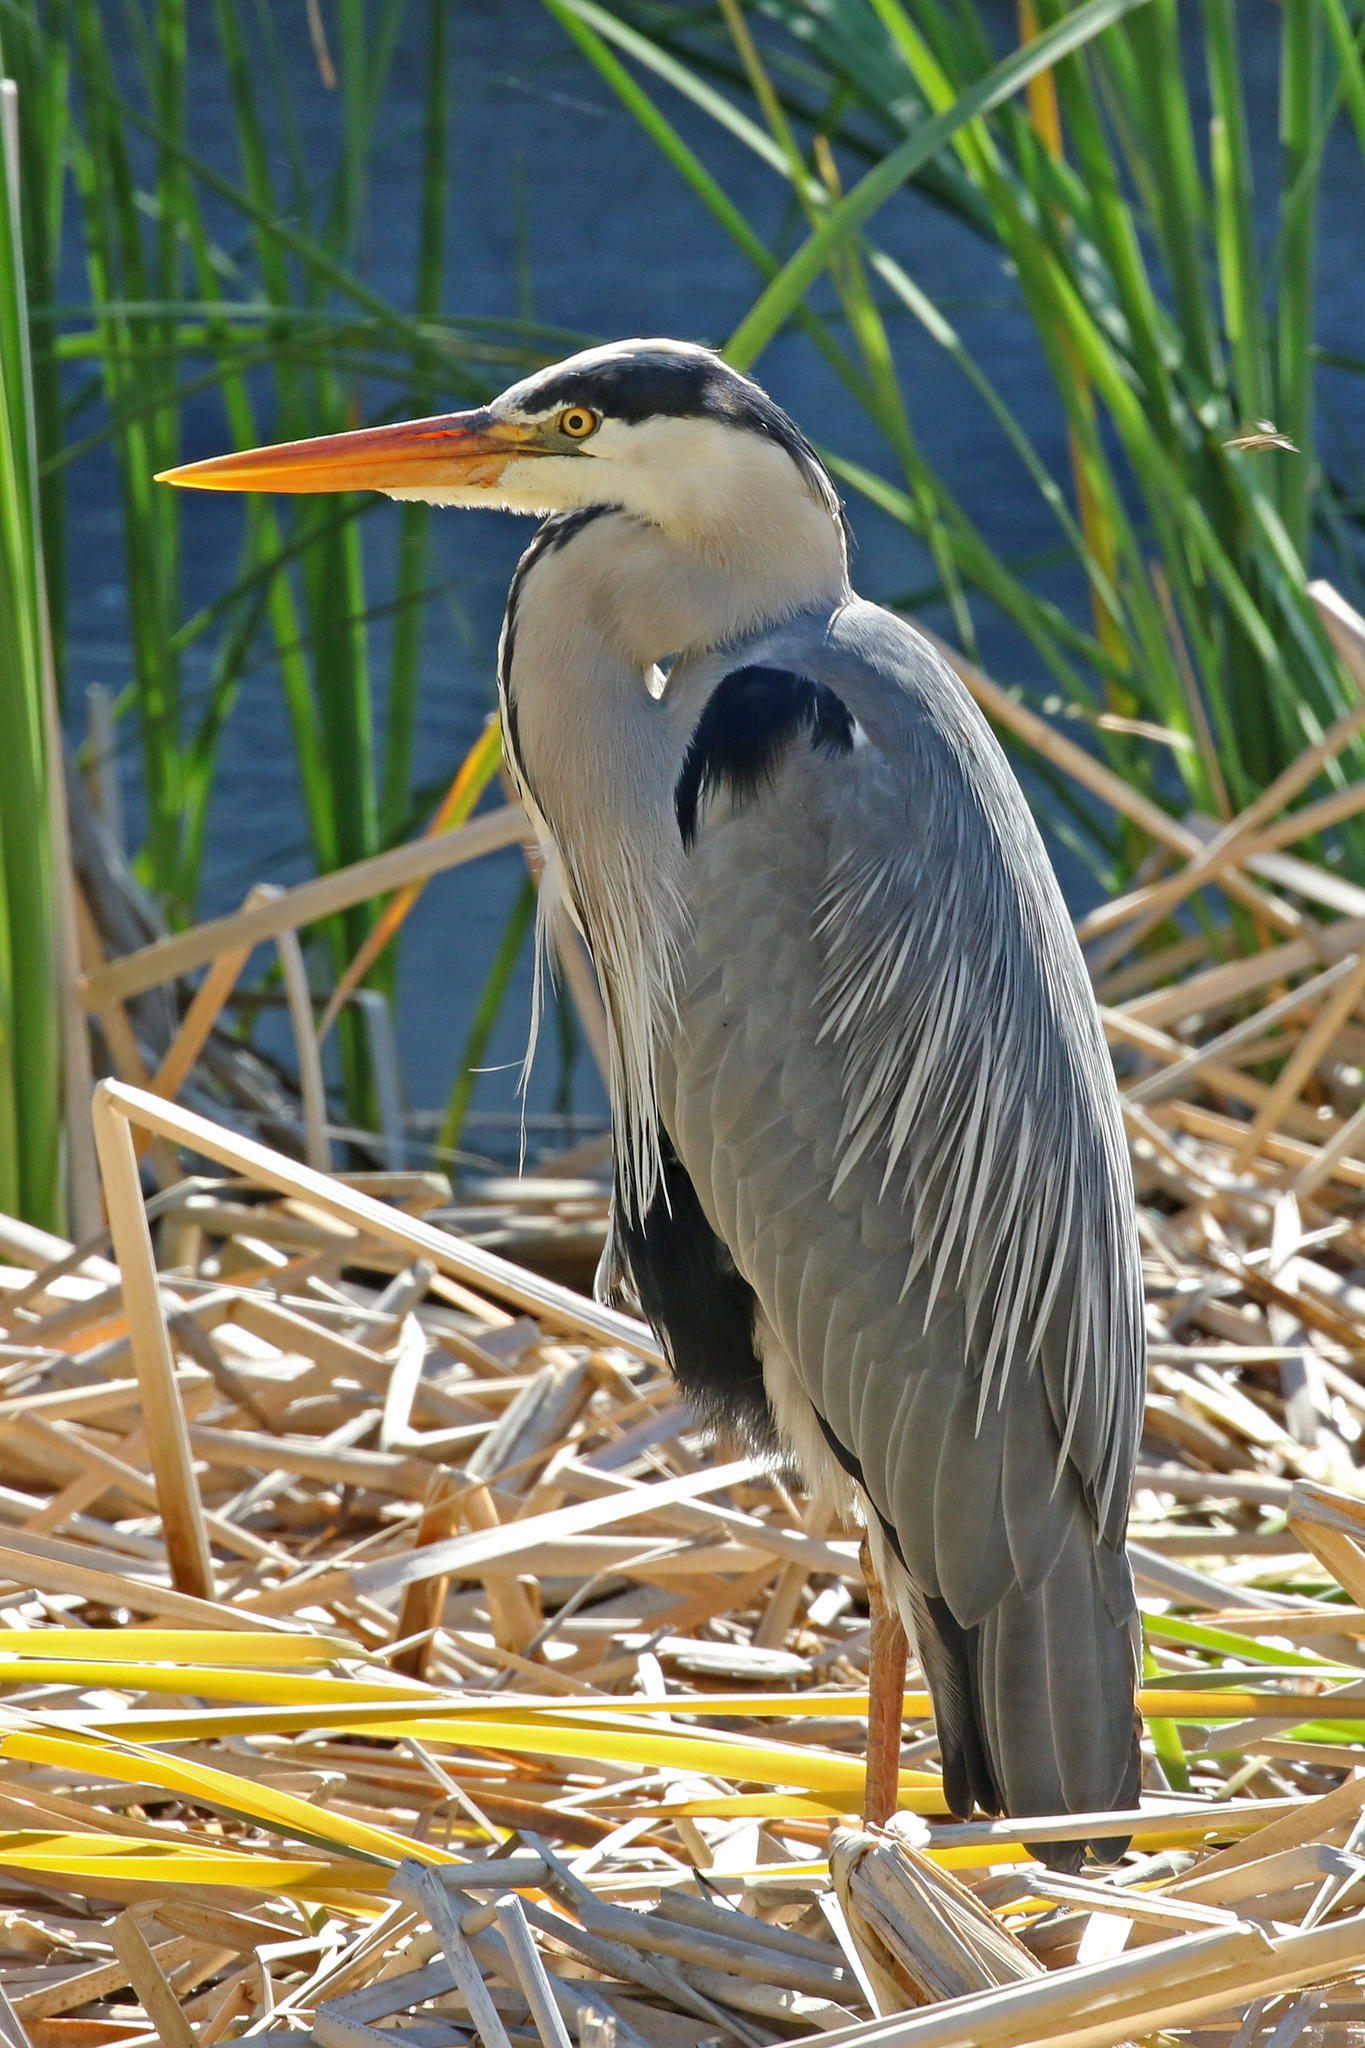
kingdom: Animalia
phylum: Chordata
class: Aves
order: Pelecaniformes
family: Ardeidae
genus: Ardea
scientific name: Ardea cinerea
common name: Grey heron
